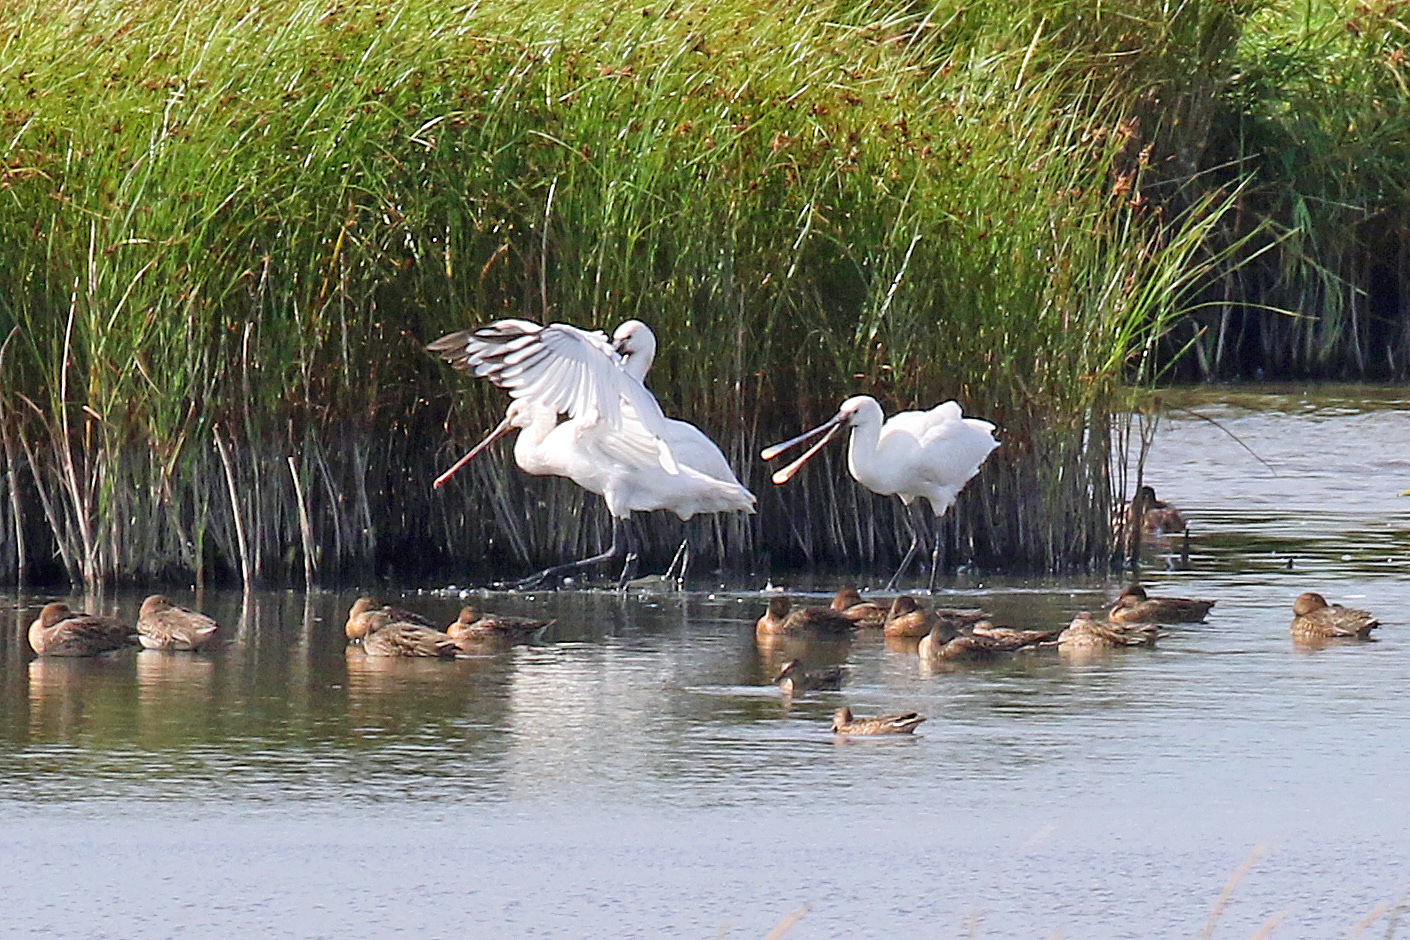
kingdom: Animalia
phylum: Chordata
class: Aves
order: Pelecaniformes
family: Threskiornithidae
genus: Platalea
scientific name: Platalea leucorodia
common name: Eurasian spoonbill
